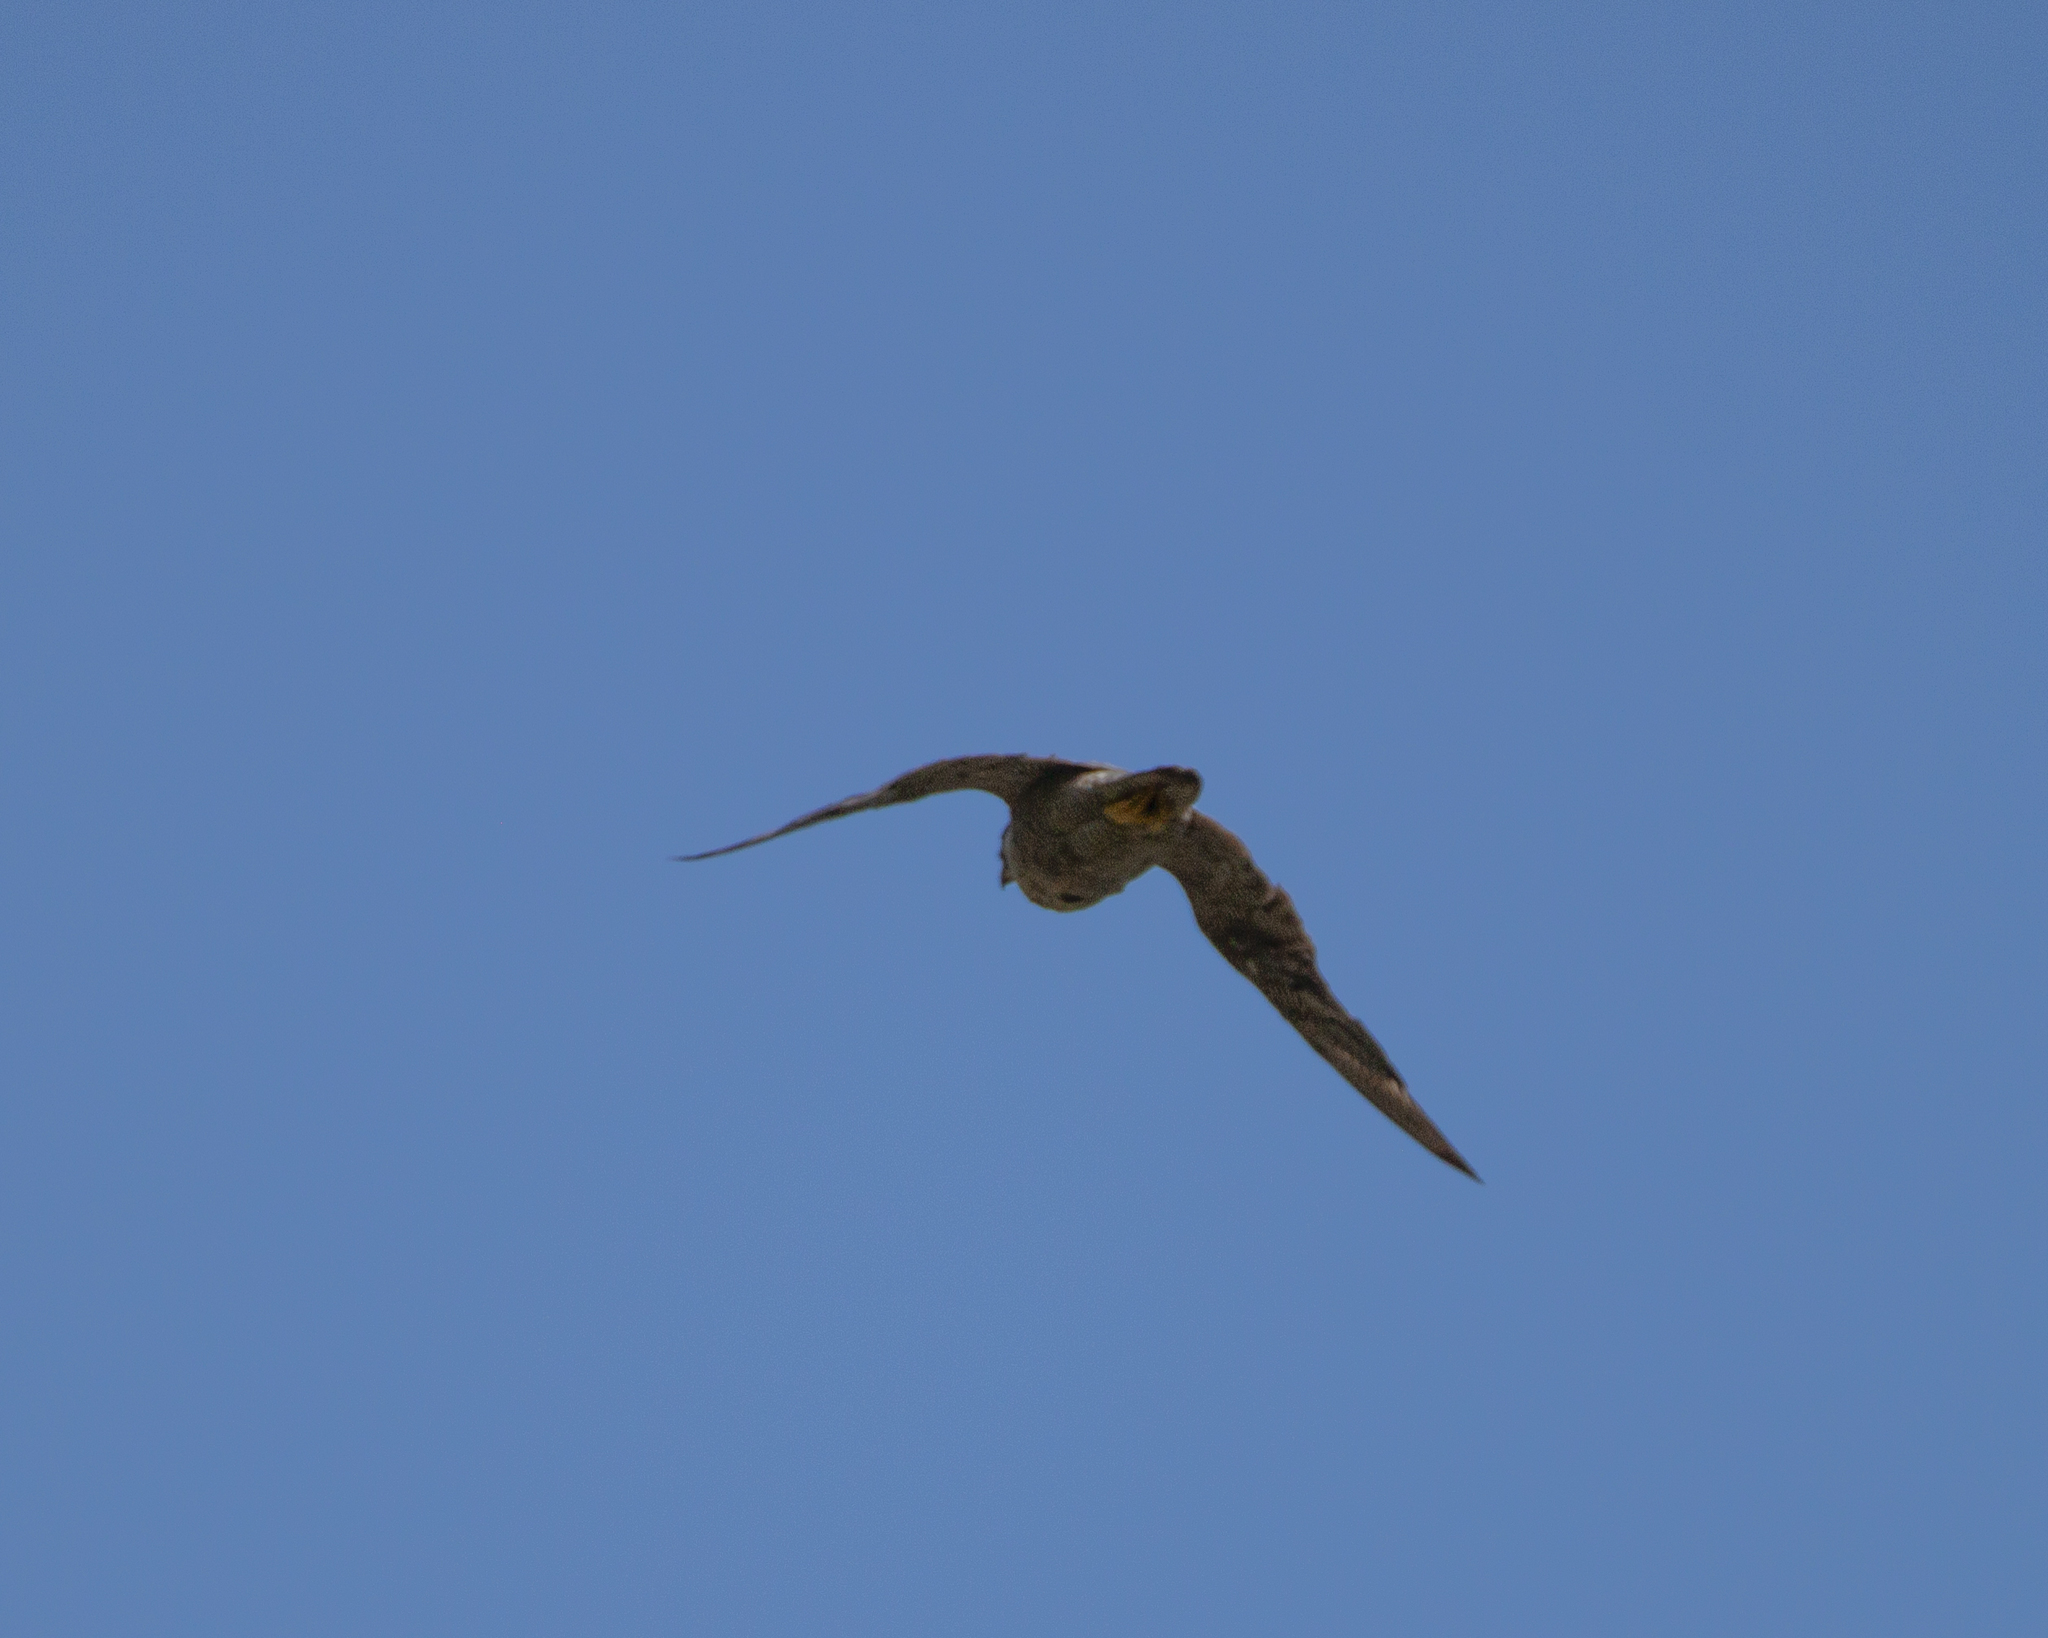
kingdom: Animalia
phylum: Chordata
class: Aves
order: Falconiformes
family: Falconidae
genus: Falco
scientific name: Falco peregrinus
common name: Peregrine falcon
